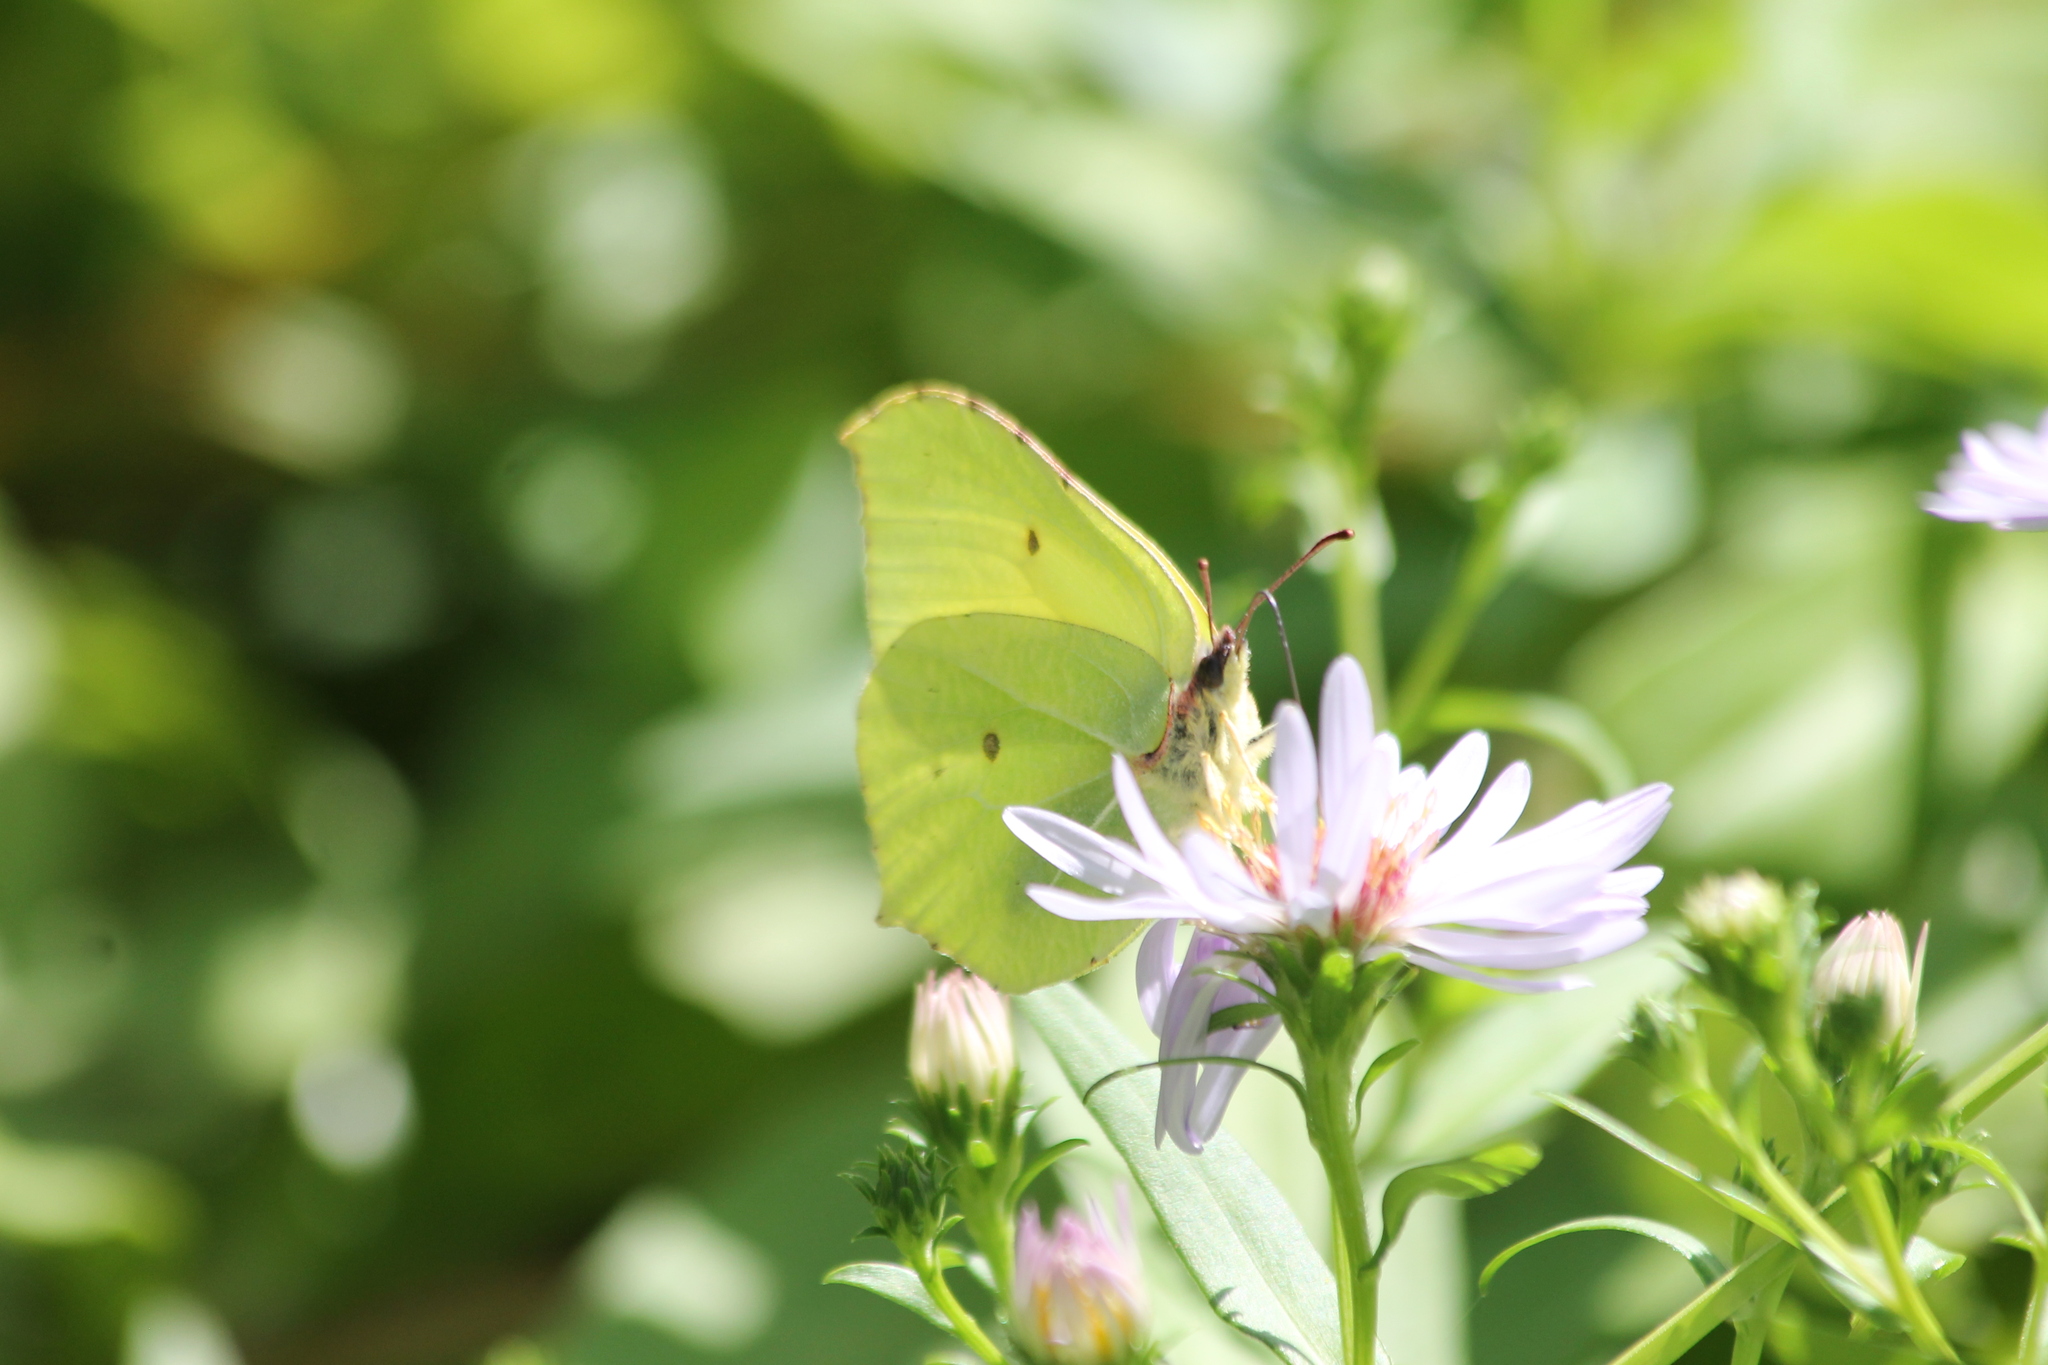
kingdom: Animalia
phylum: Arthropoda
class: Insecta
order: Lepidoptera
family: Pieridae
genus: Gonepteryx
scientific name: Gonepteryx rhamni
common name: Brimstone
